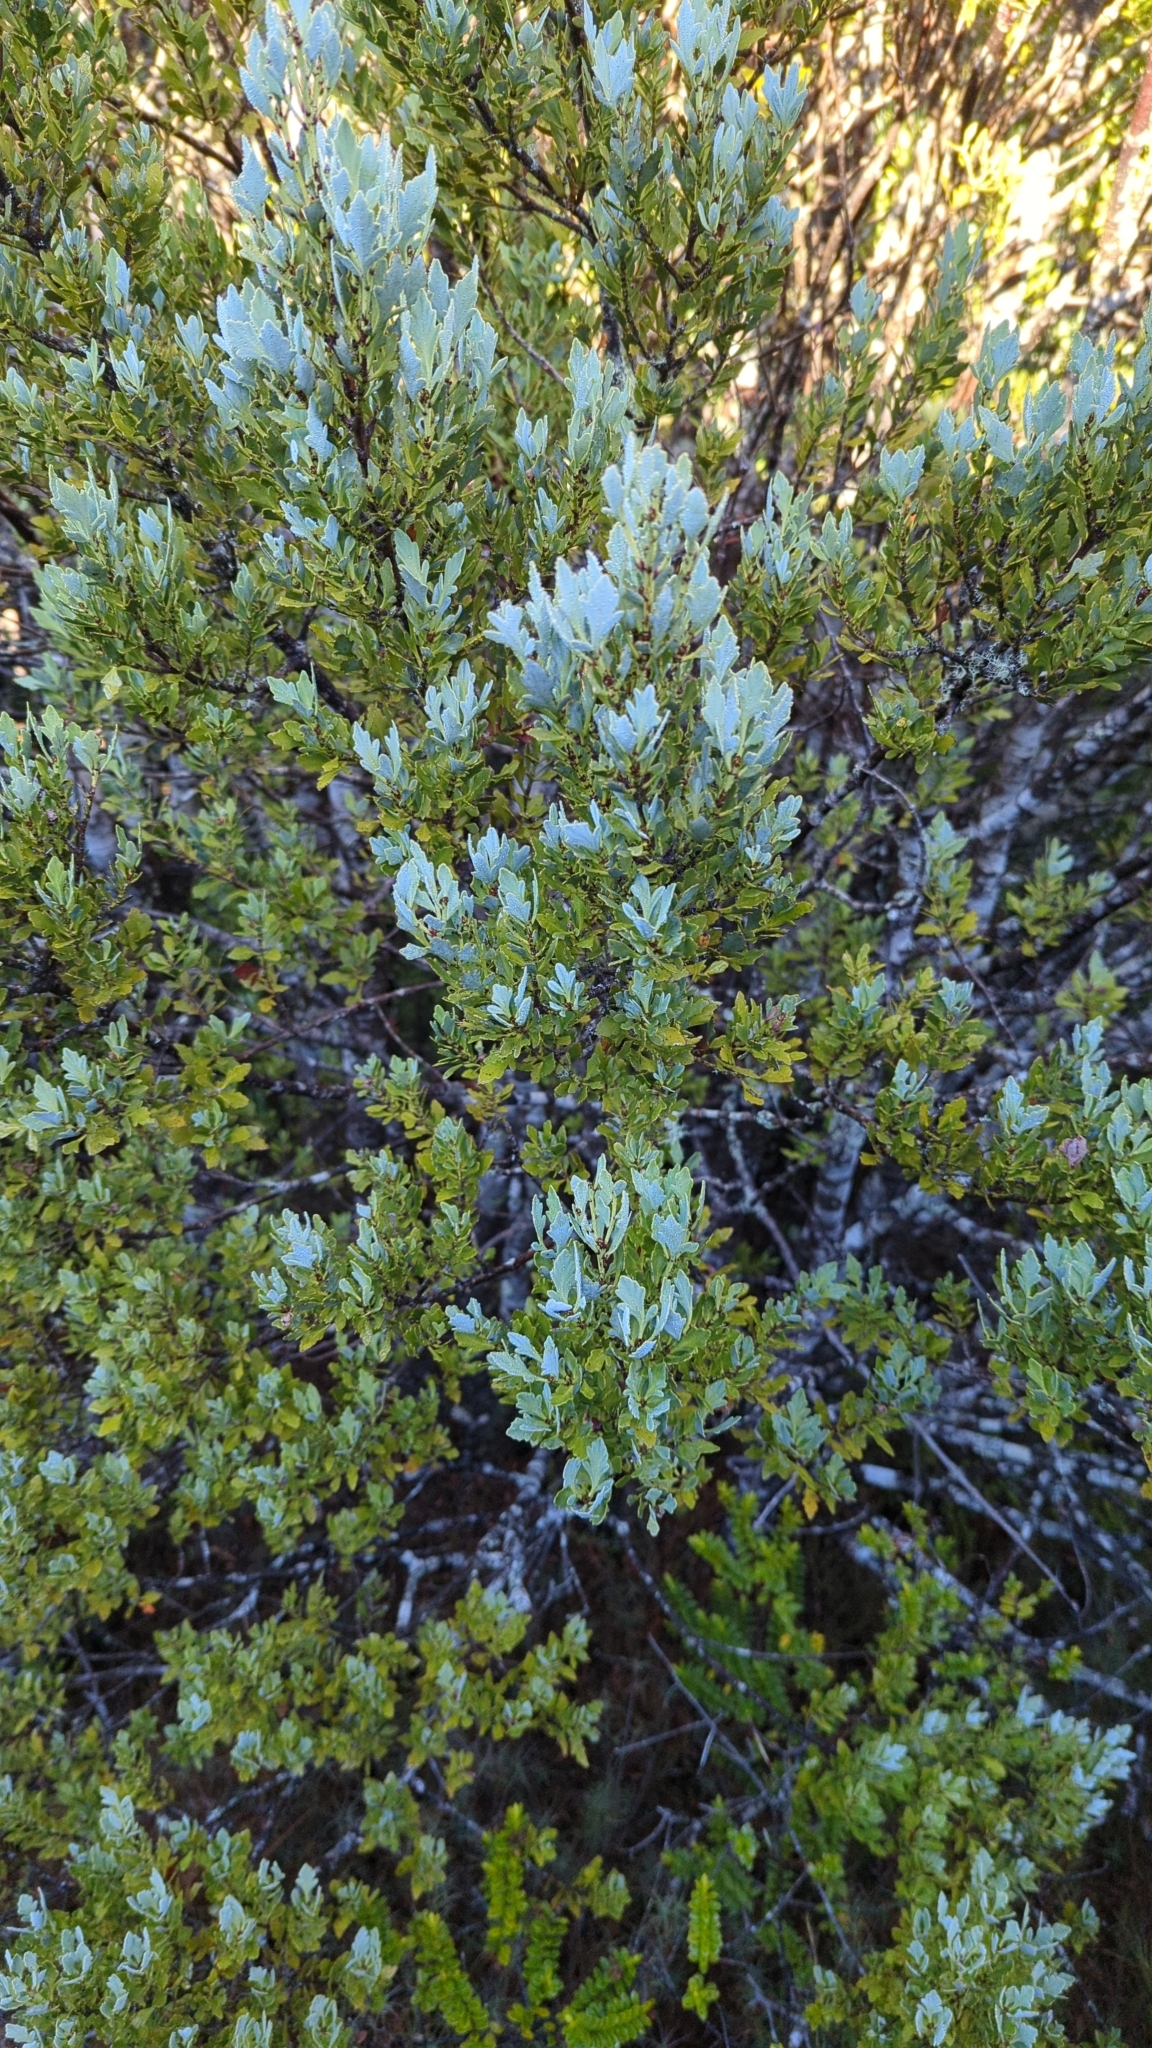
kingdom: Plantae
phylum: Tracheophyta
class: Pinopsida
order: Pinales
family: Phyllocladaceae
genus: Phyllocladus
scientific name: Phyllocladus trichomanoides
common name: Celery pine
